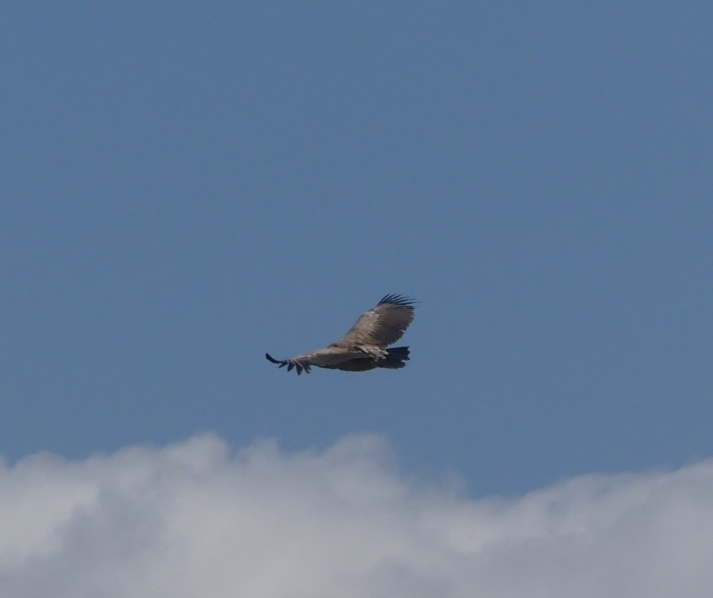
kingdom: Animalia
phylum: Chordata
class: Aves
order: Accipitriformes
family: Accipitridae
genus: Gyps
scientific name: Gyps africanus
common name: White-backed vulture
